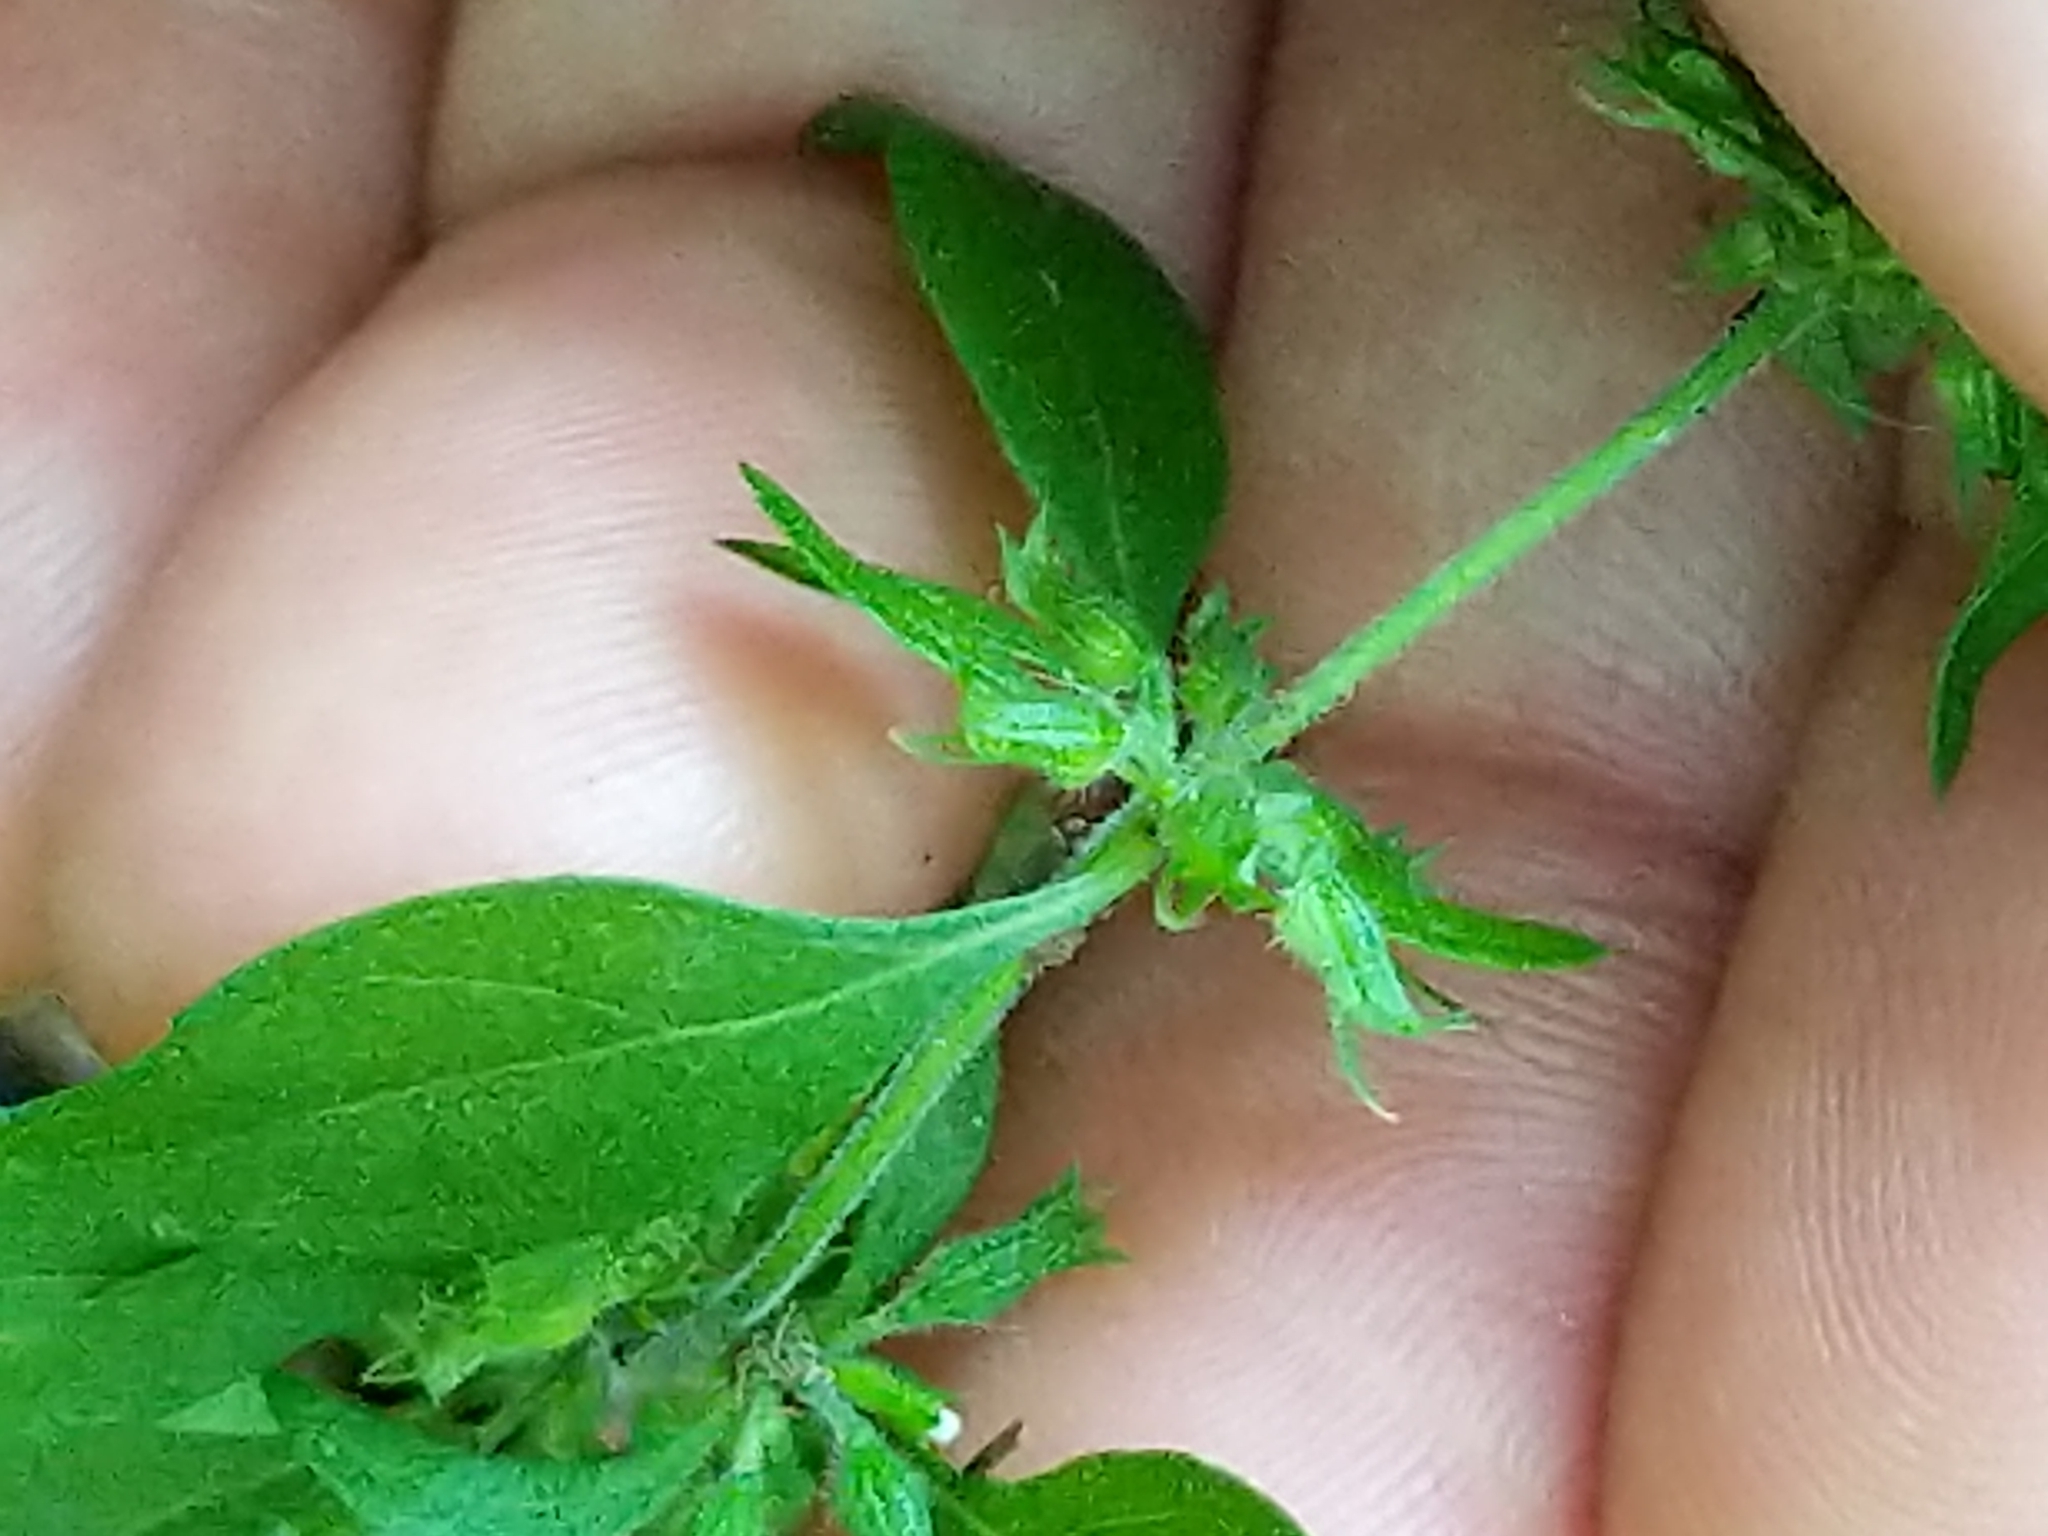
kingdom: Plantae
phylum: Tracheophyta
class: Magnoliopsida
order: Lamiales
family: Lamiaceae
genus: Hedeoma
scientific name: Hedeoma pulegioides
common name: American false pennyroyal
